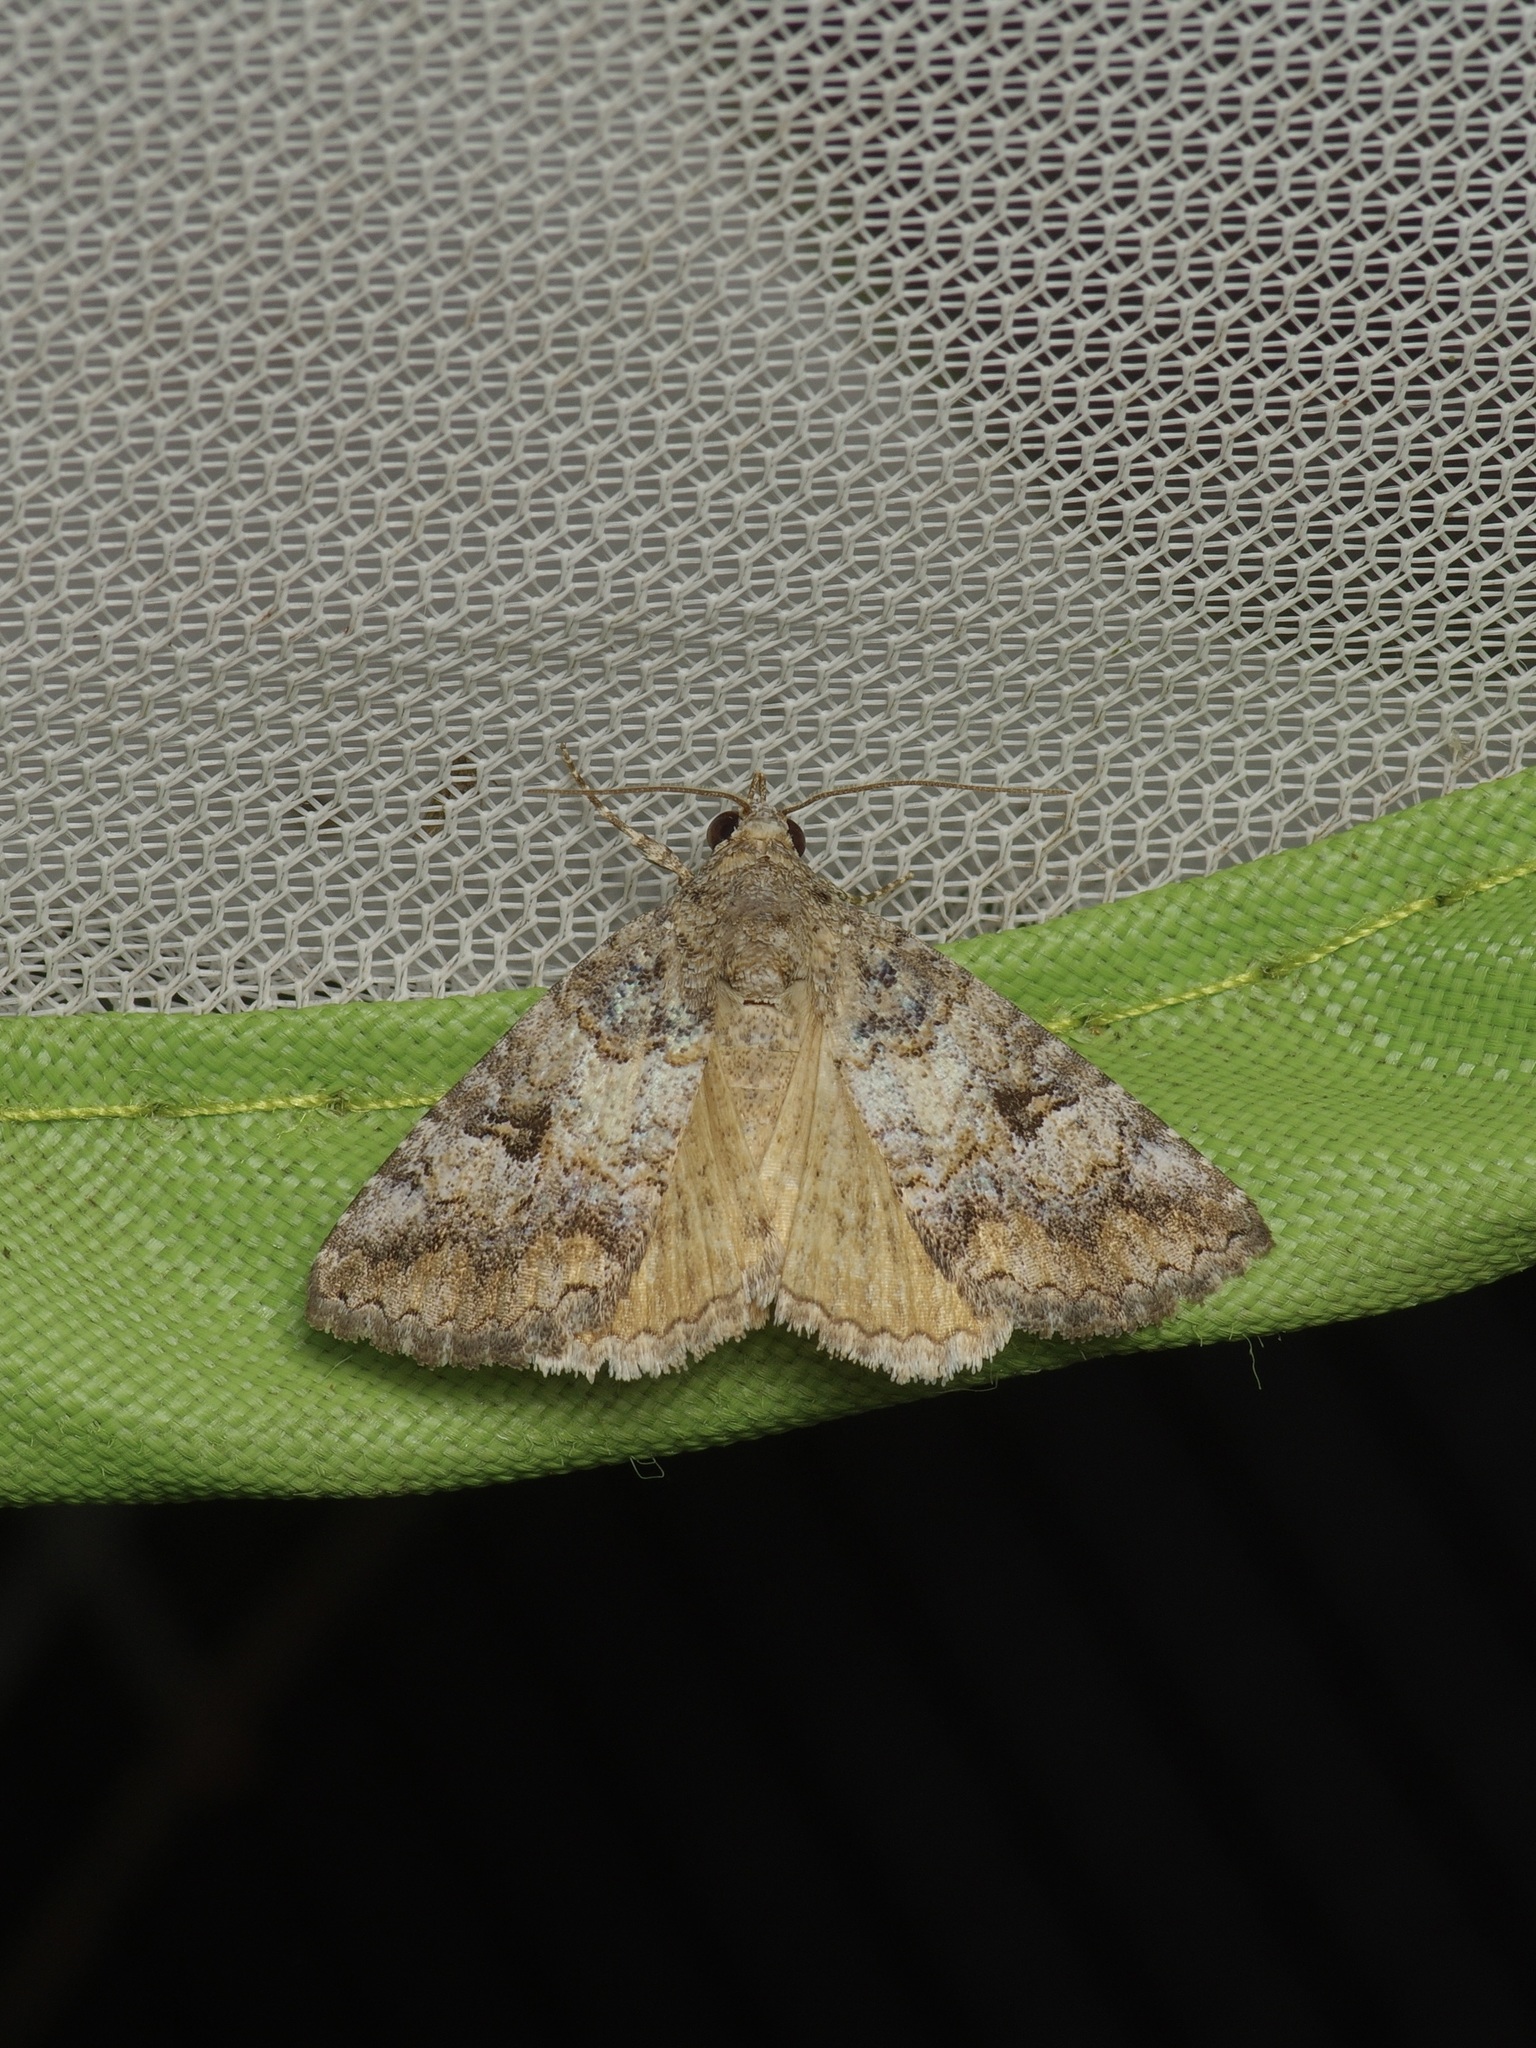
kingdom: Animalia
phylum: Arthropoda
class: Insecta
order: Lepidoptera
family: Erebidae
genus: Eubolina
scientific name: Eubolina impartialis
